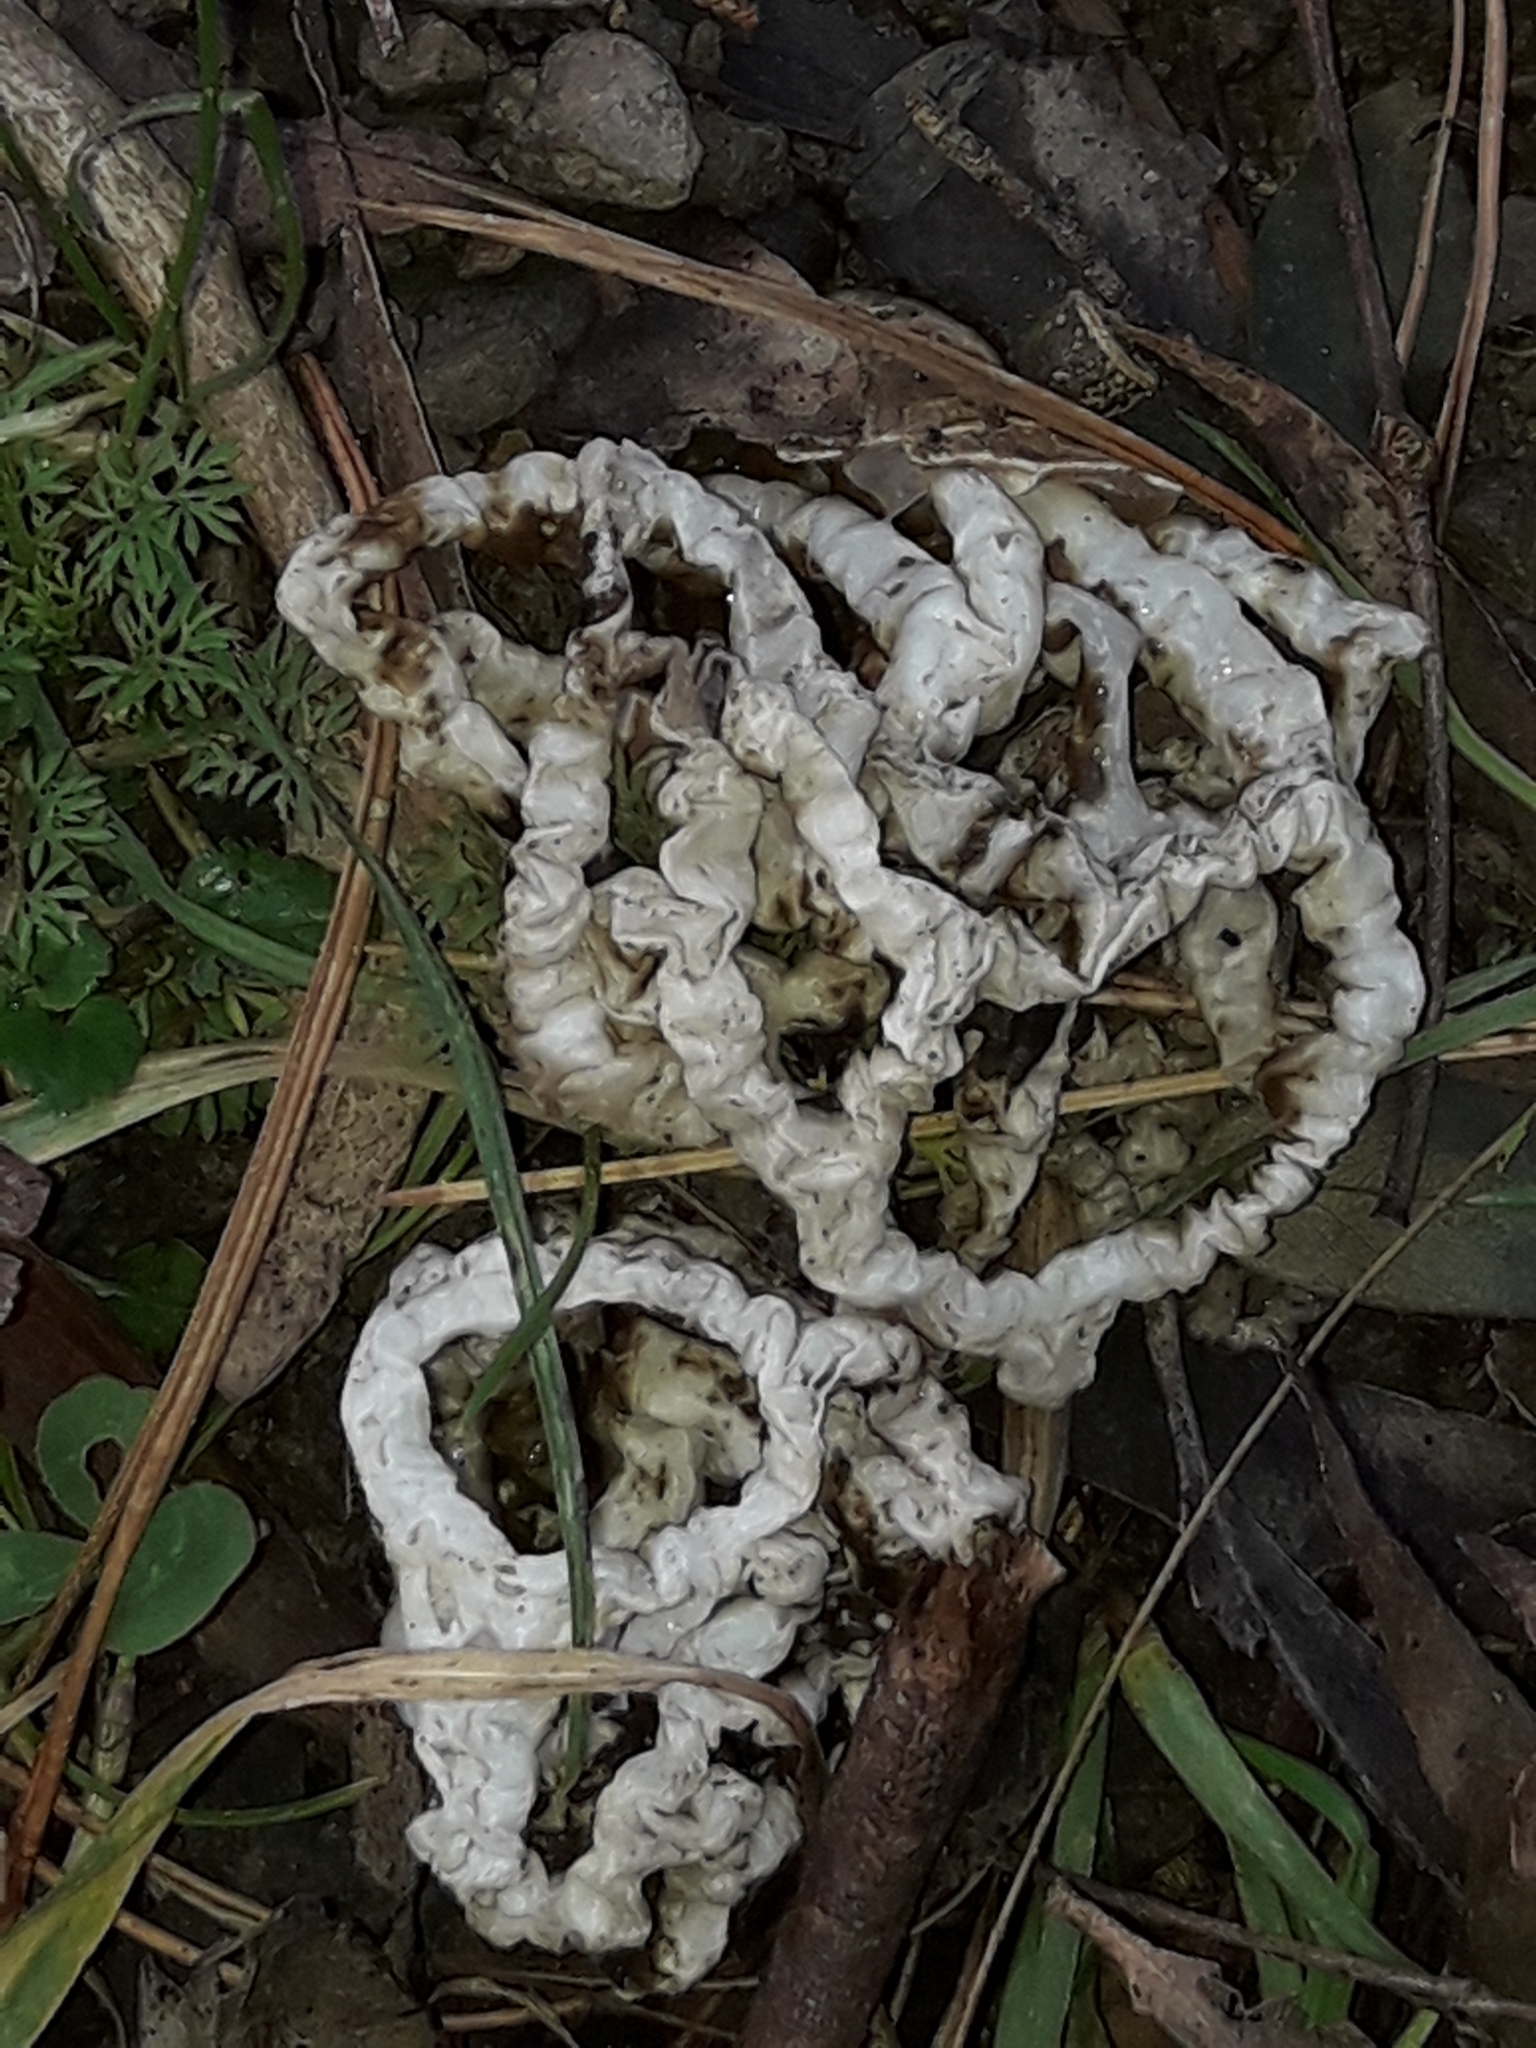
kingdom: Fungi
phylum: Basidiomycota
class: Agaricomycetes
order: Phallales
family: Phallaceae
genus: Ileodictyon
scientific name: Ileodictyon cibarium
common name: Basket fungus
